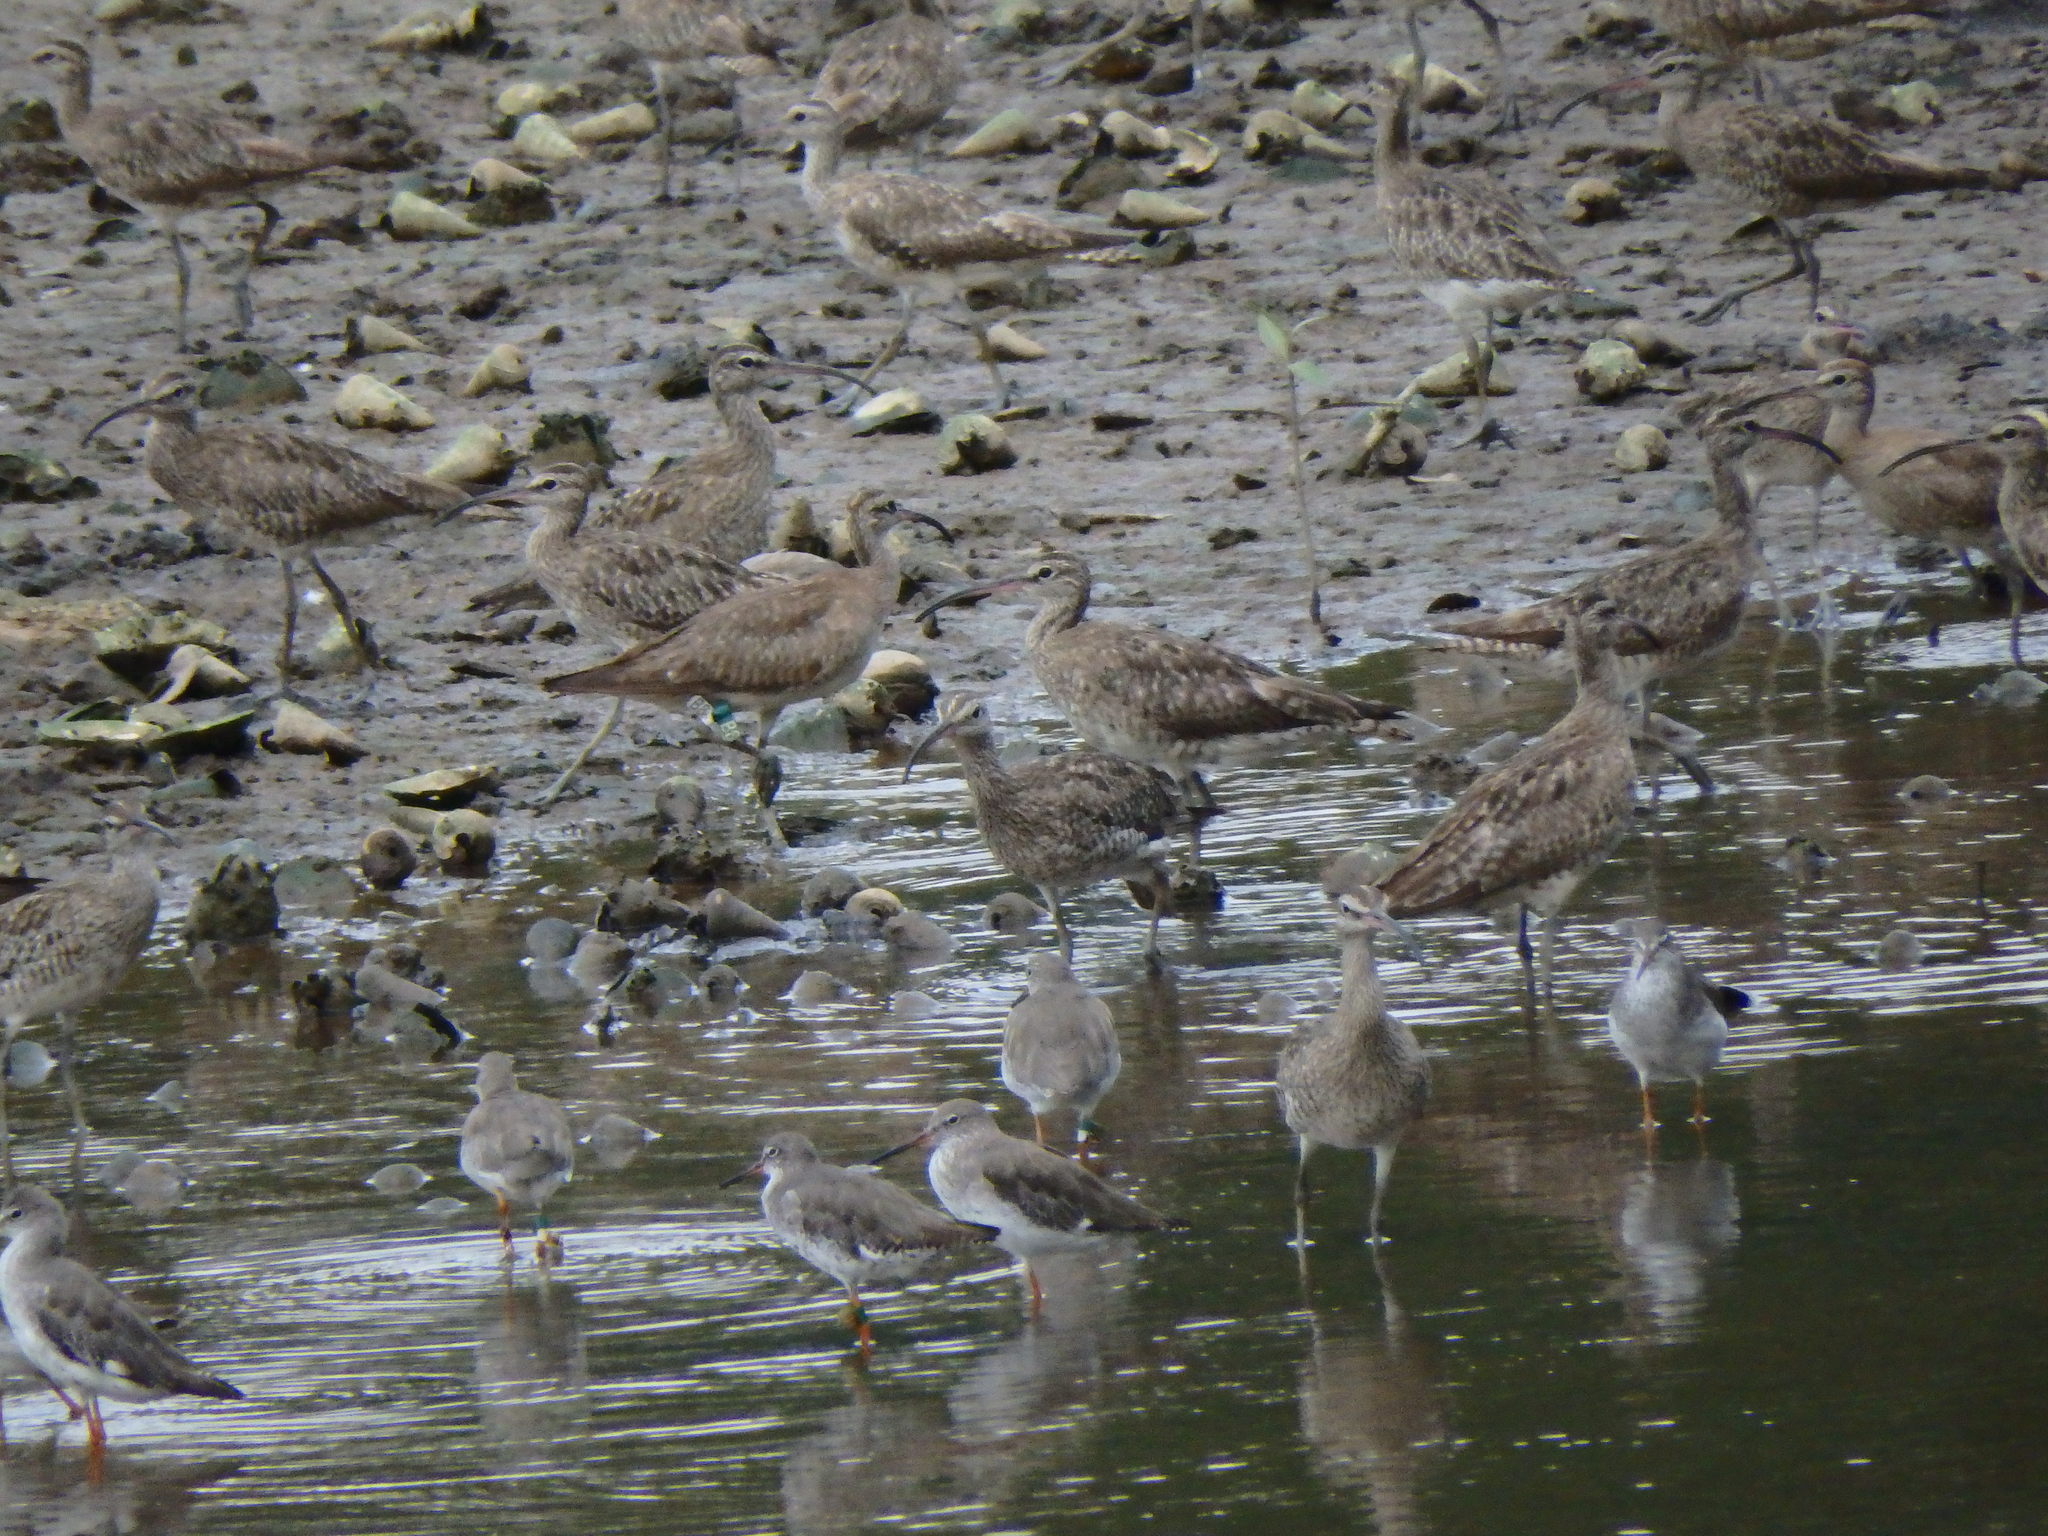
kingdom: Animalia
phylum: Chordata
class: Aves
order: Charadriiformes
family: Scolopacidae
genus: Numenius
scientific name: Numenius phaeopus
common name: Whimbrel
